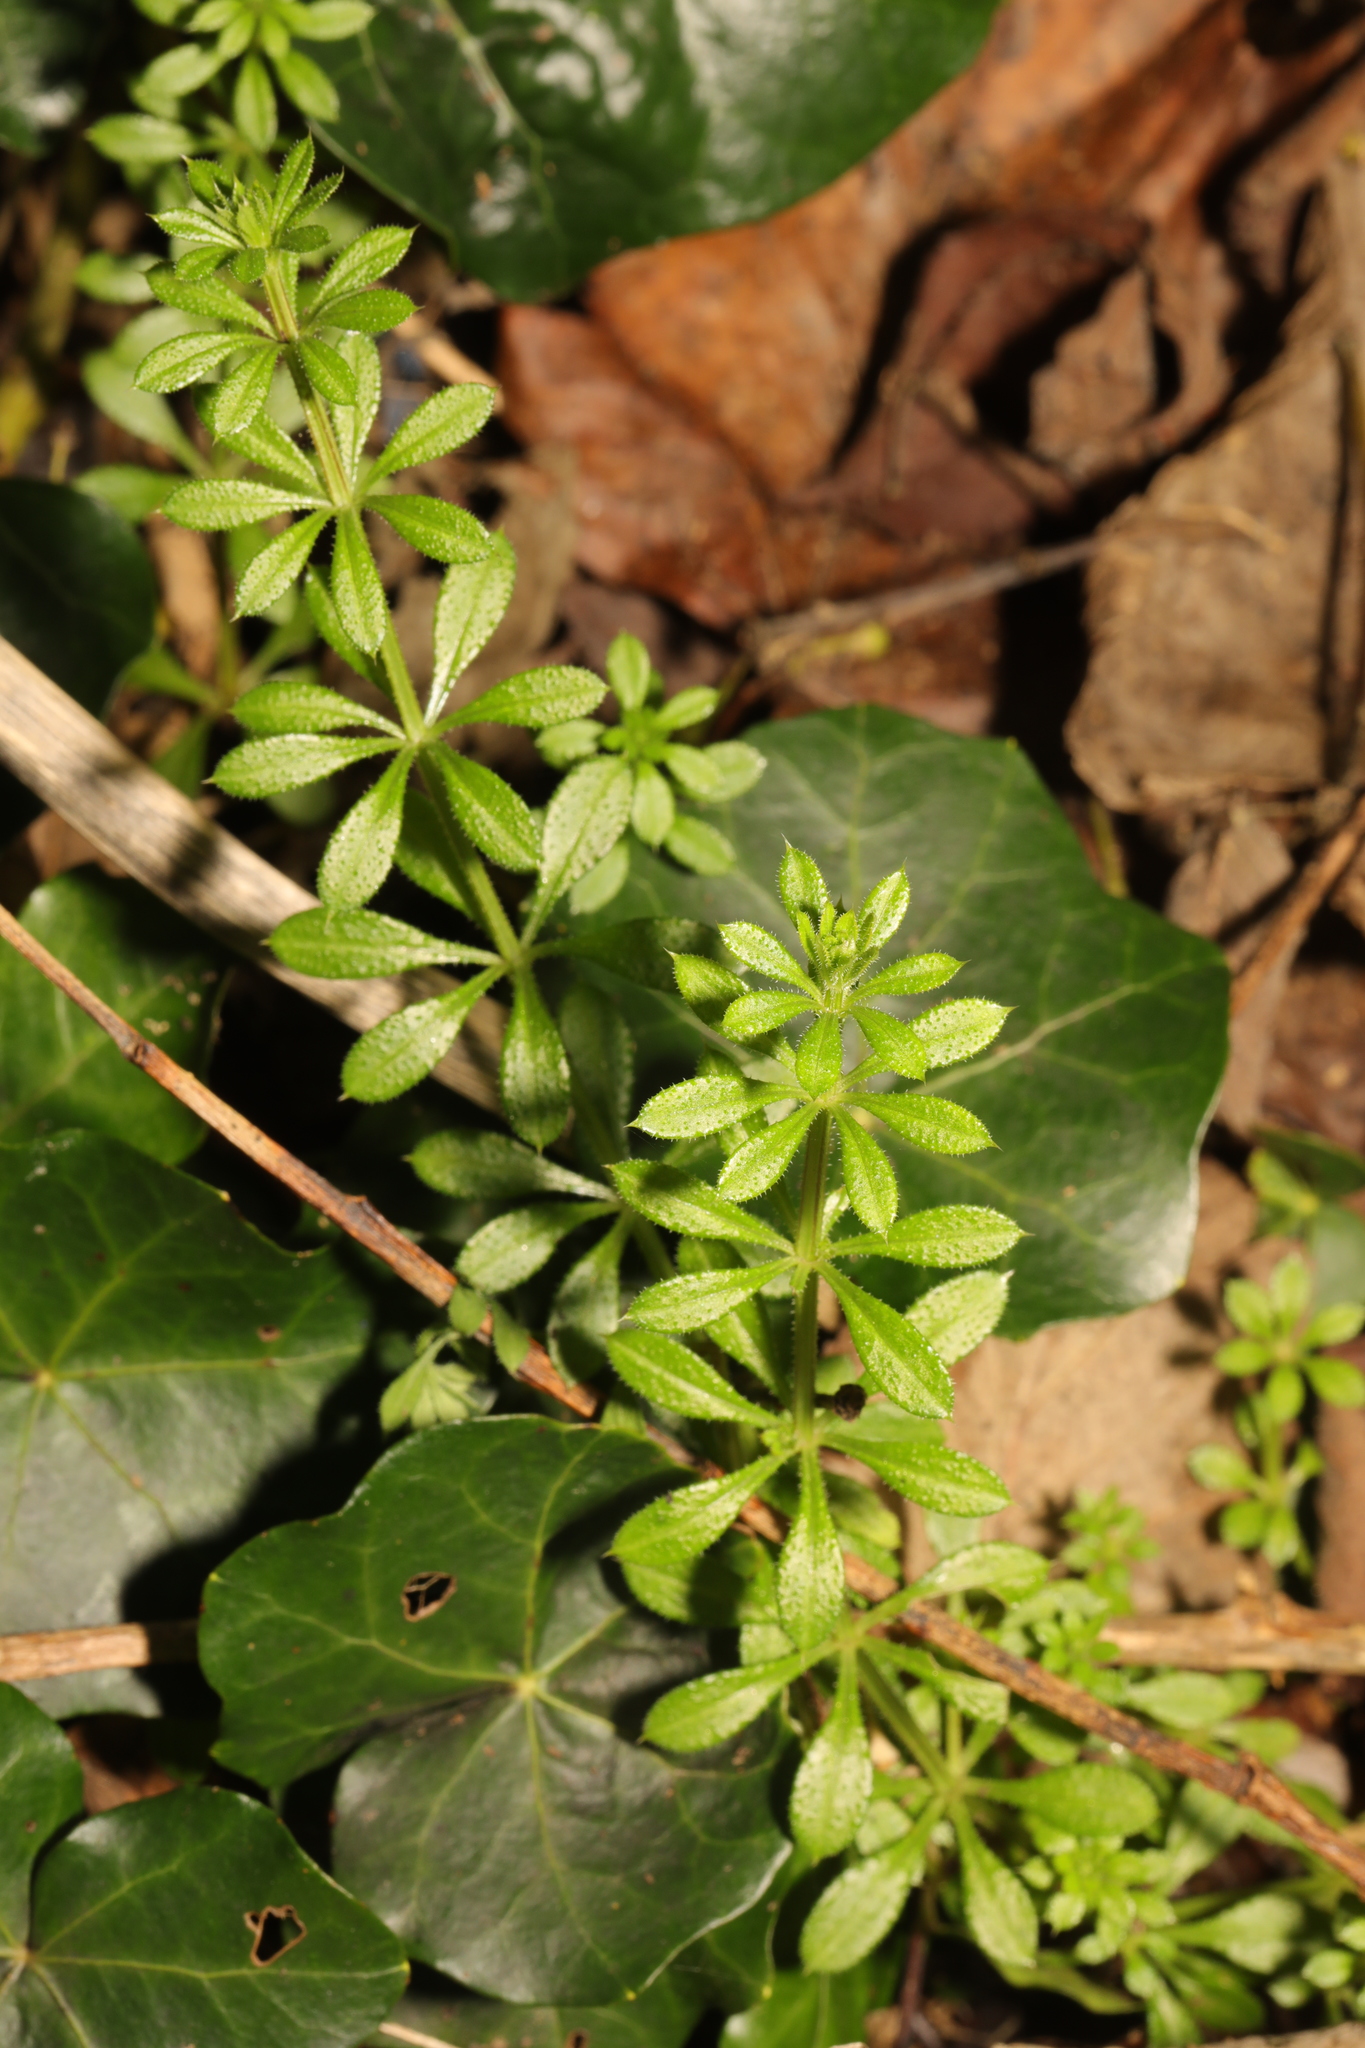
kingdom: Plantae
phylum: Tracheophyta
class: Magnoliopsida
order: Gentianales
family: Rubiaceae
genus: Galium
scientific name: Galium aparine
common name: Cleavers
